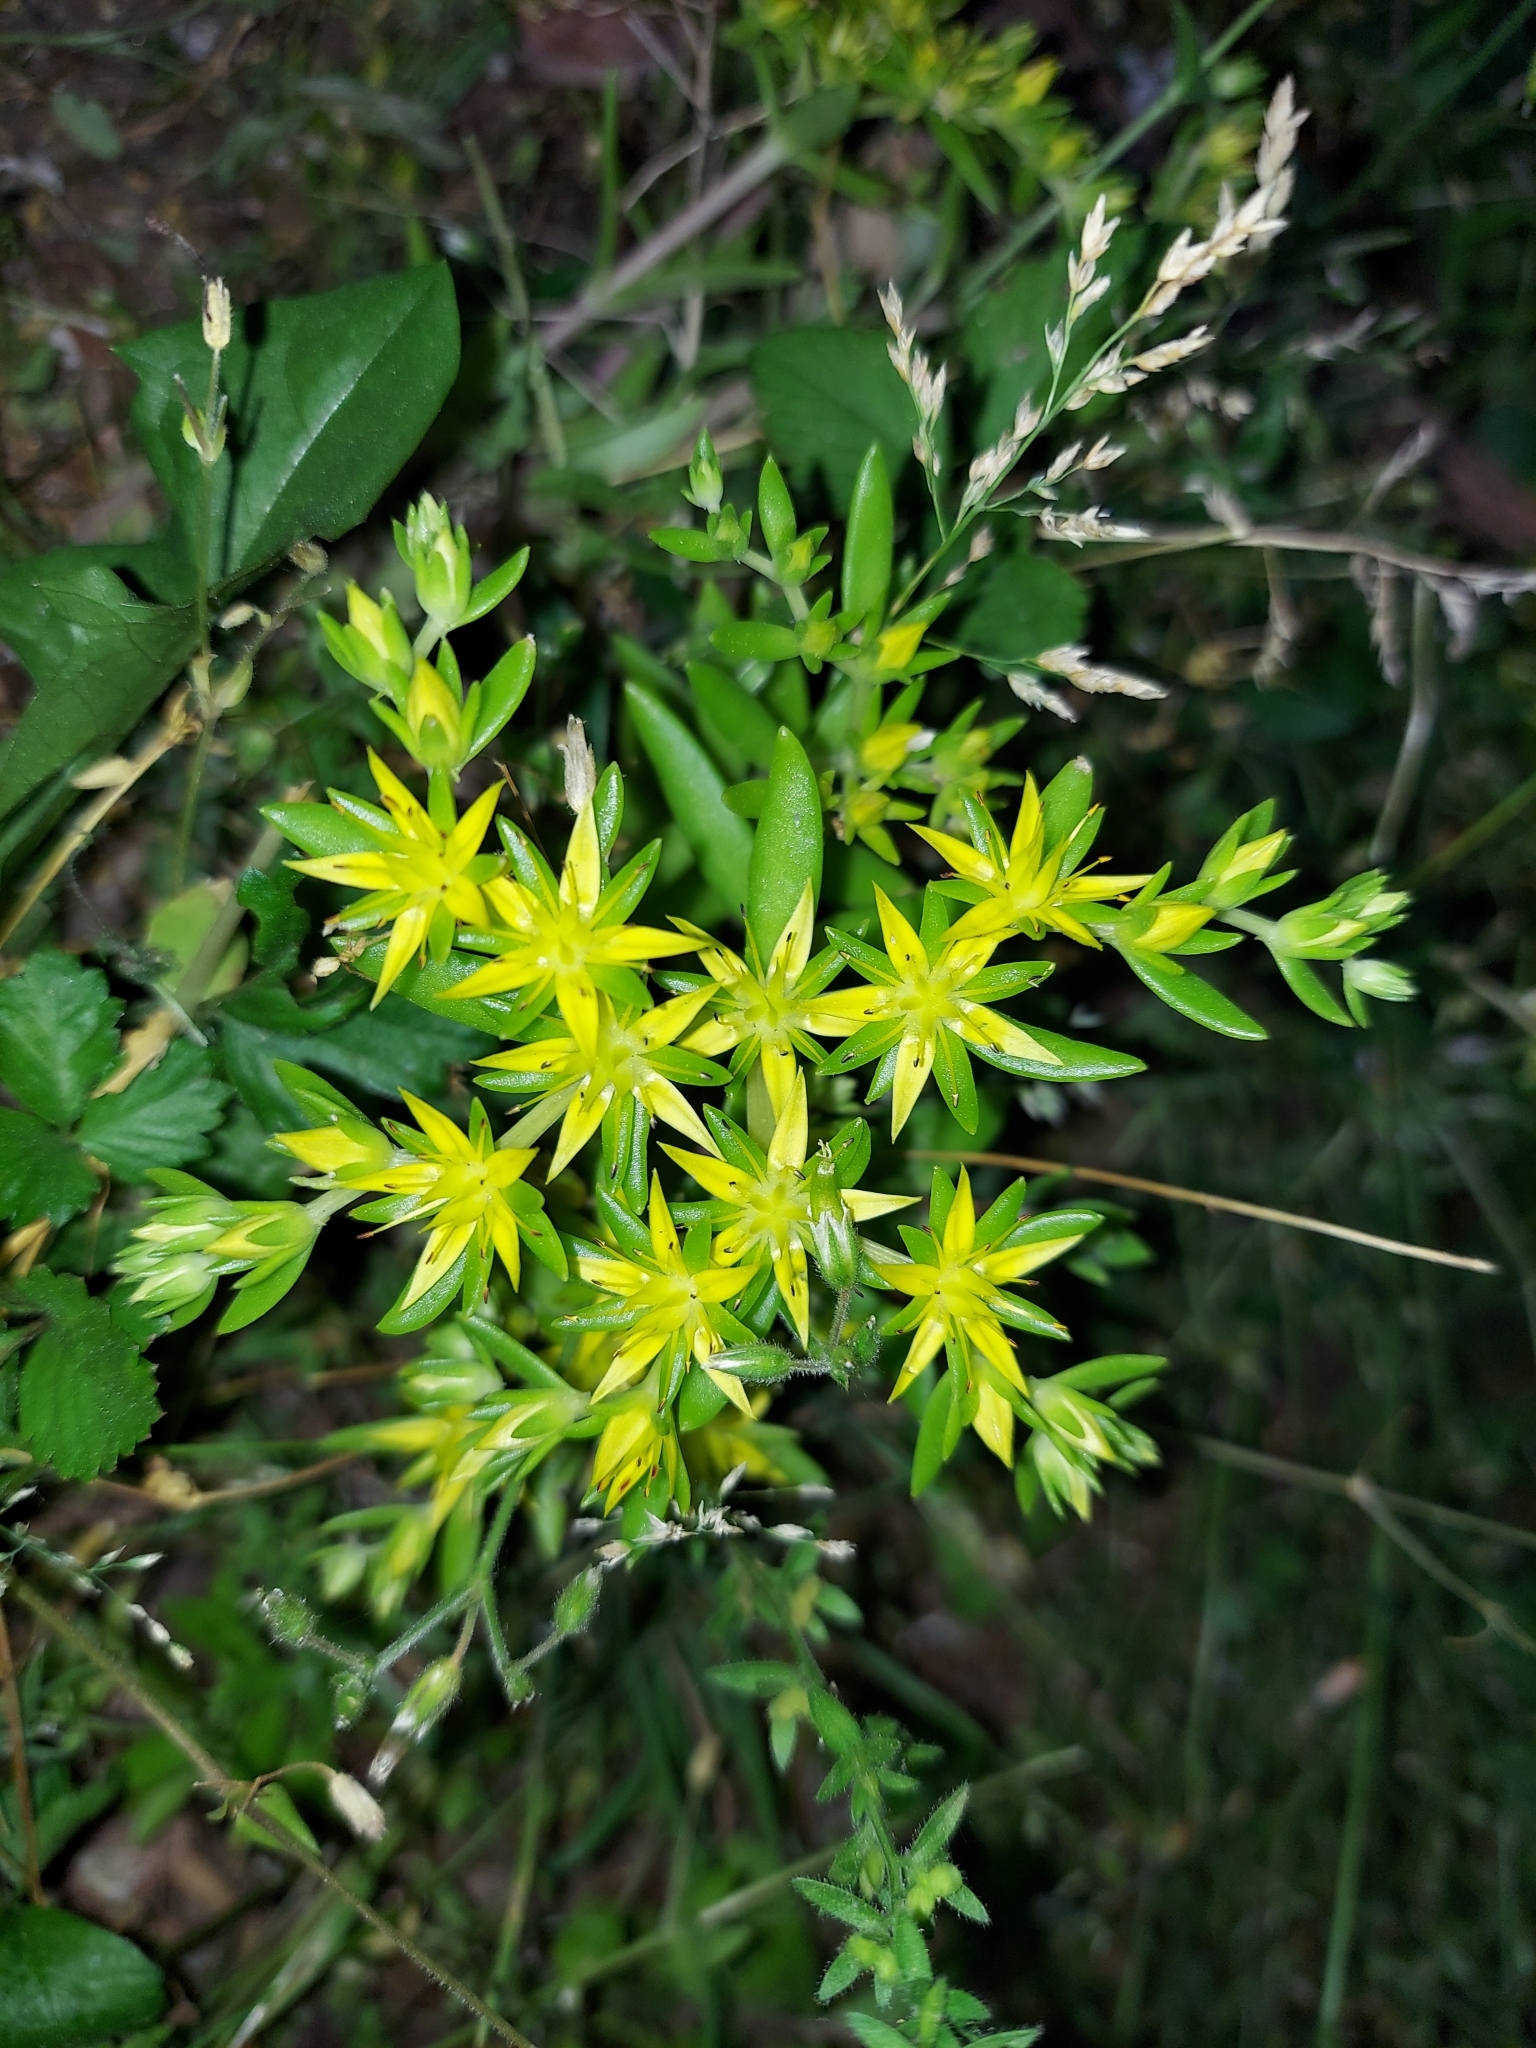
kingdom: Plantae
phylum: Tracheophyta
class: Magnoliopsida
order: Saxifragales
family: Crassulaceae
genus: Sedum
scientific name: Sedum sarmentosum
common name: Stringy stonecrop
